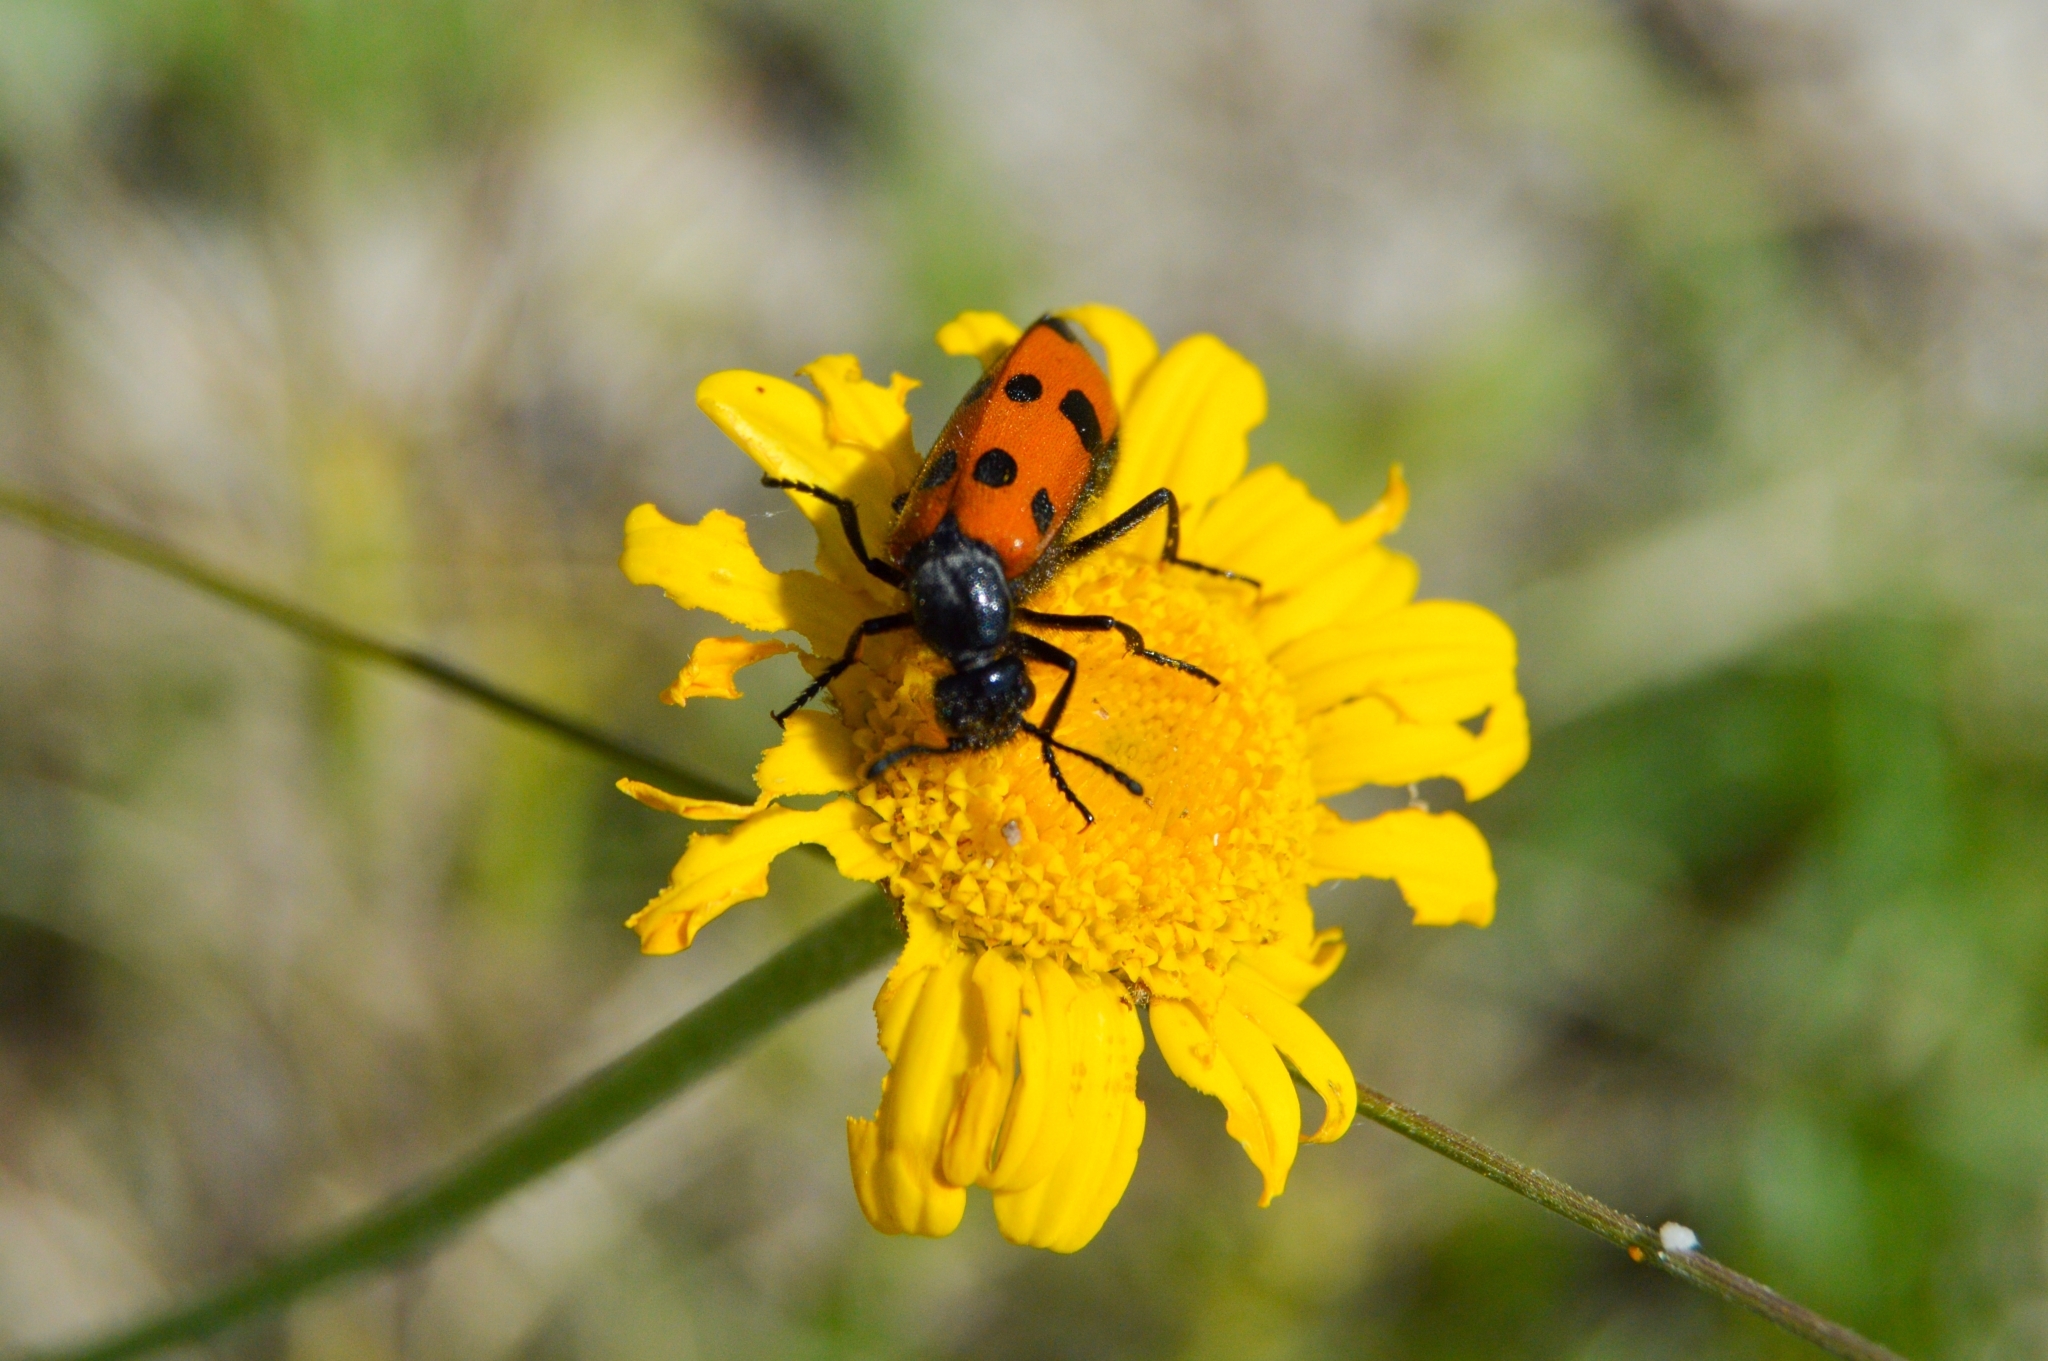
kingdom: Animalia
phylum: Arthropoda
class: Insecta
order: Coleoptera
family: Meloidae
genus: Mylabris
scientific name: Mylabris quadripunctata
